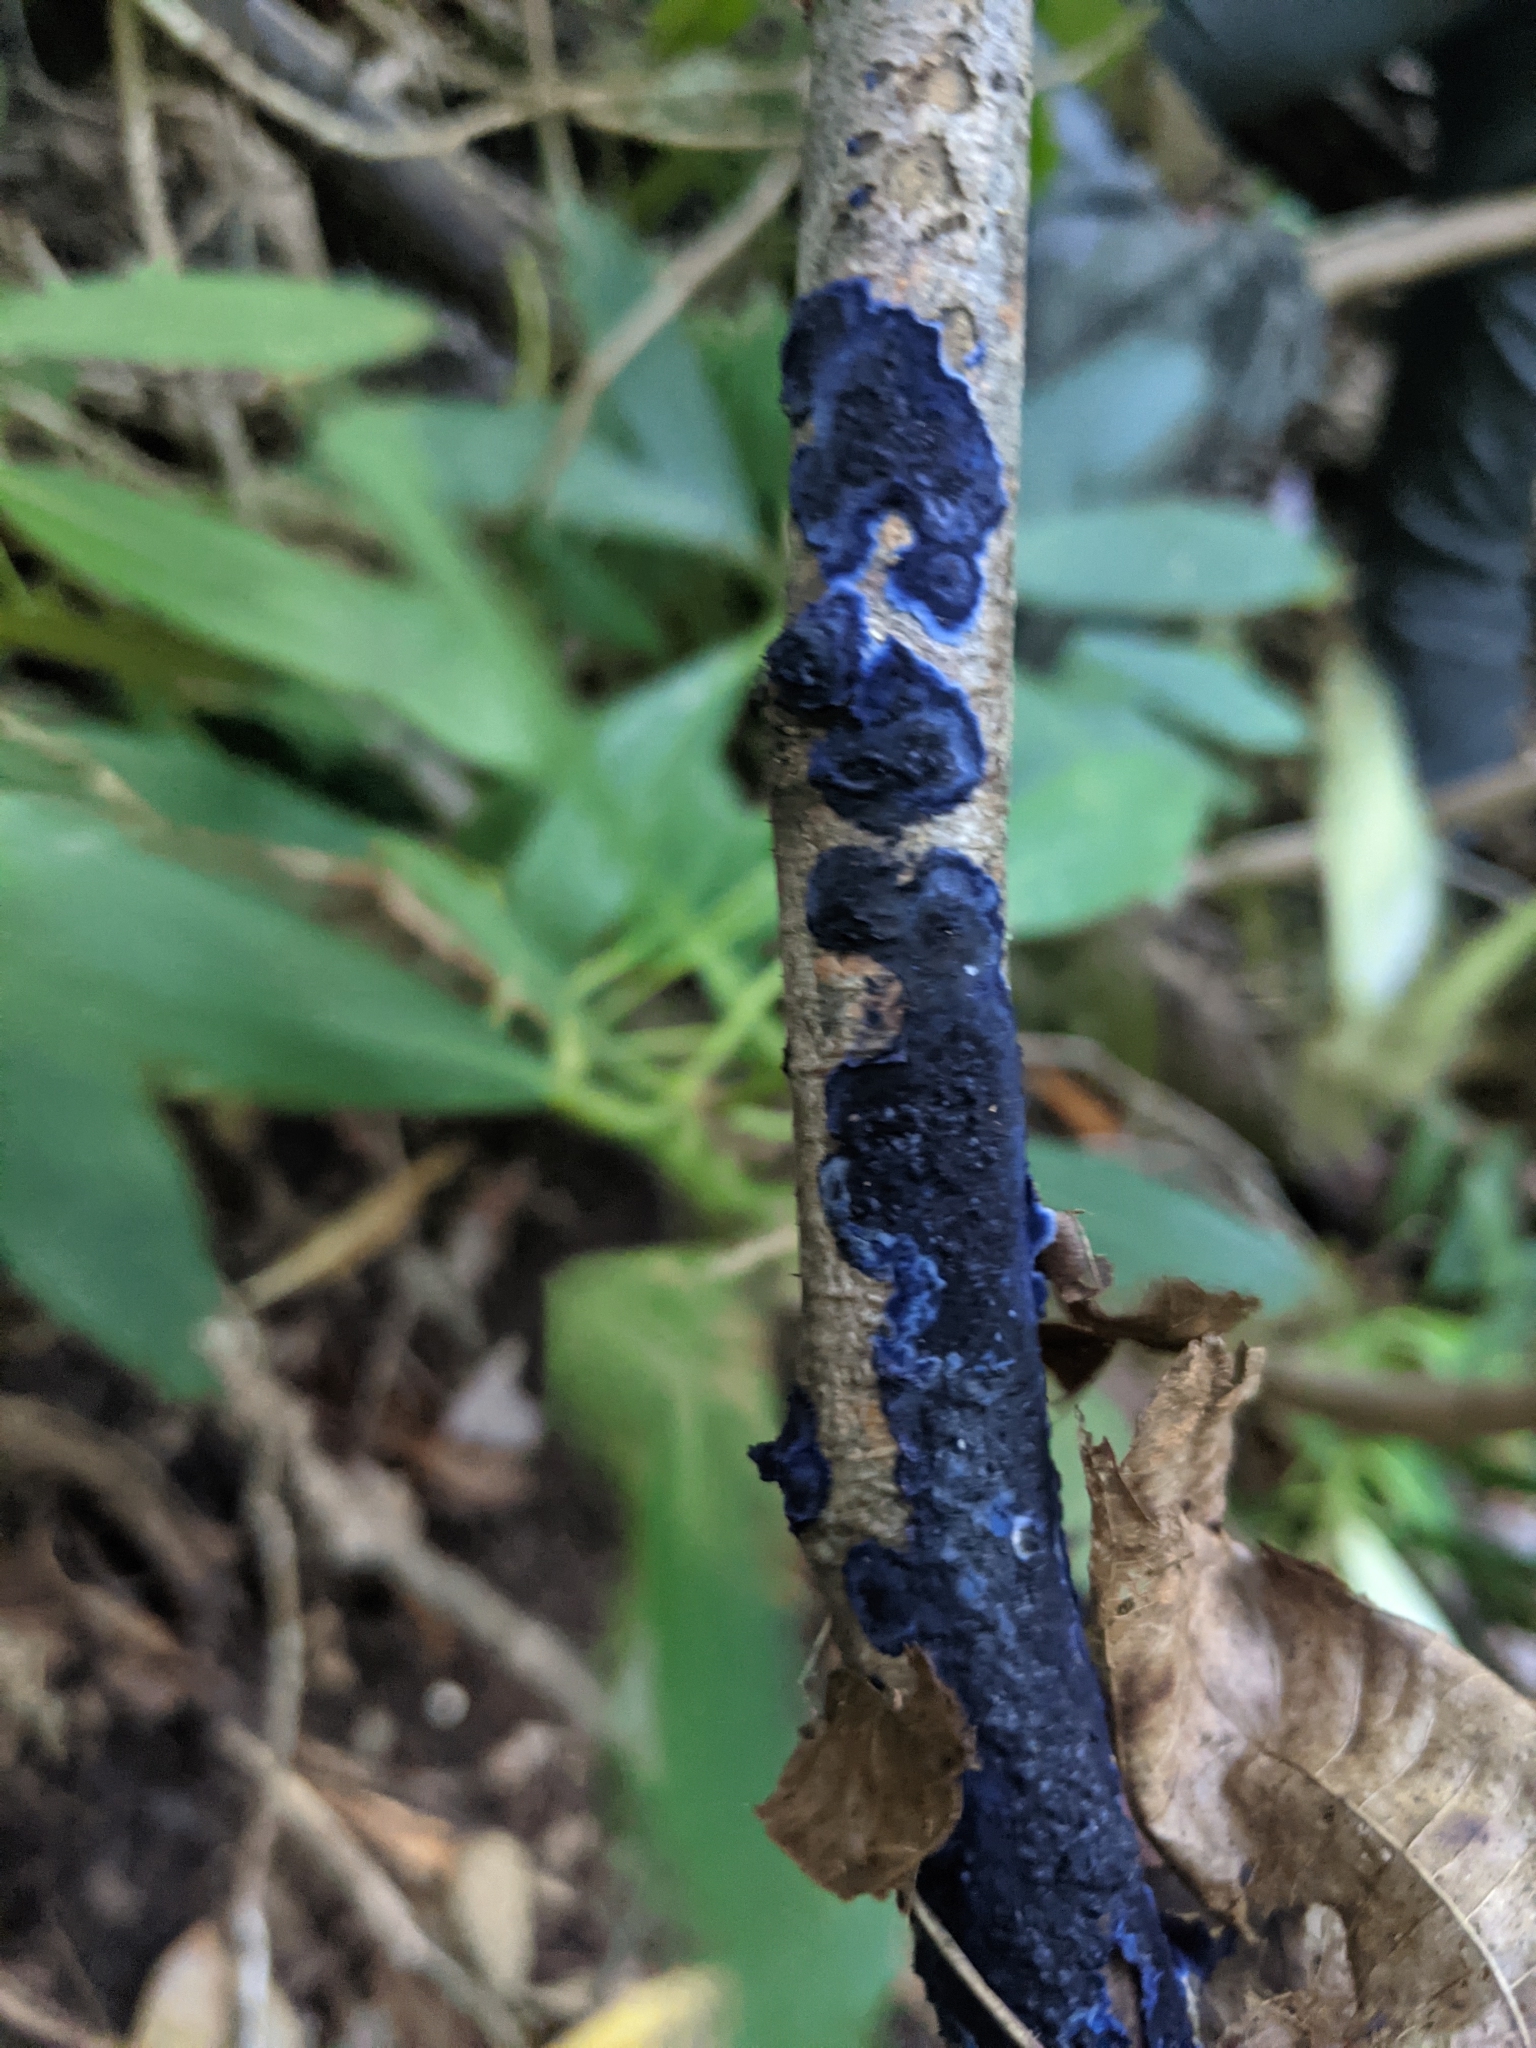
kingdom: Fungi
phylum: Basidiomycota
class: Agaricomycetes
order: Polyporales
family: Phanerochaetaceae
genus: Terana
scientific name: Terana coerulea
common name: Cobalt crust
